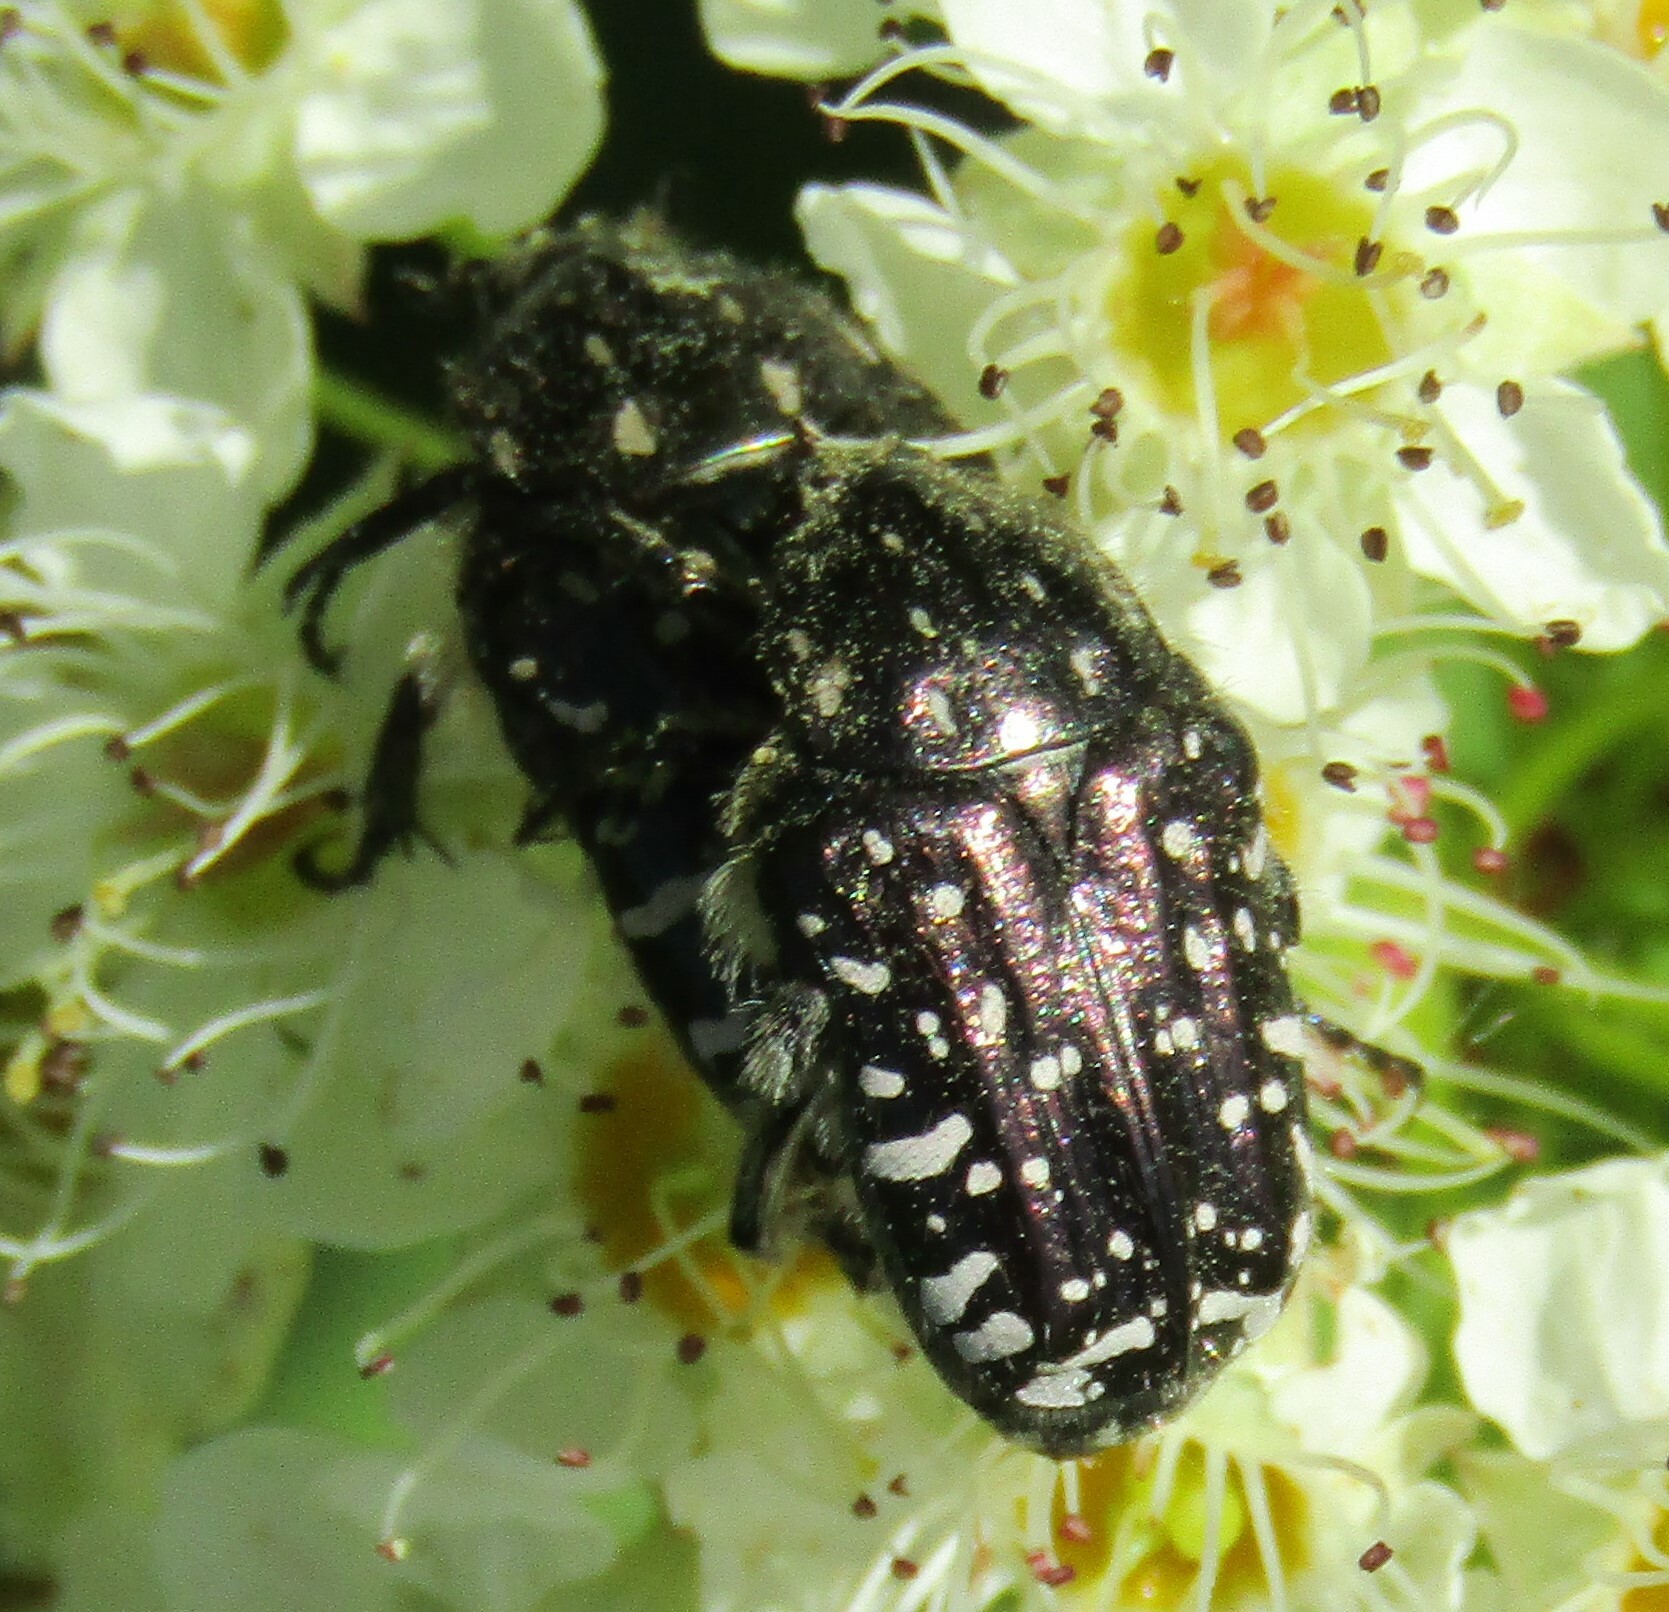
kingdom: Animalia
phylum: Arthropoda
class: Insecta
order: Coleoptera
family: Scarabaeidae
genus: Oxythyrea
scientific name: Oxythyrea funesta
